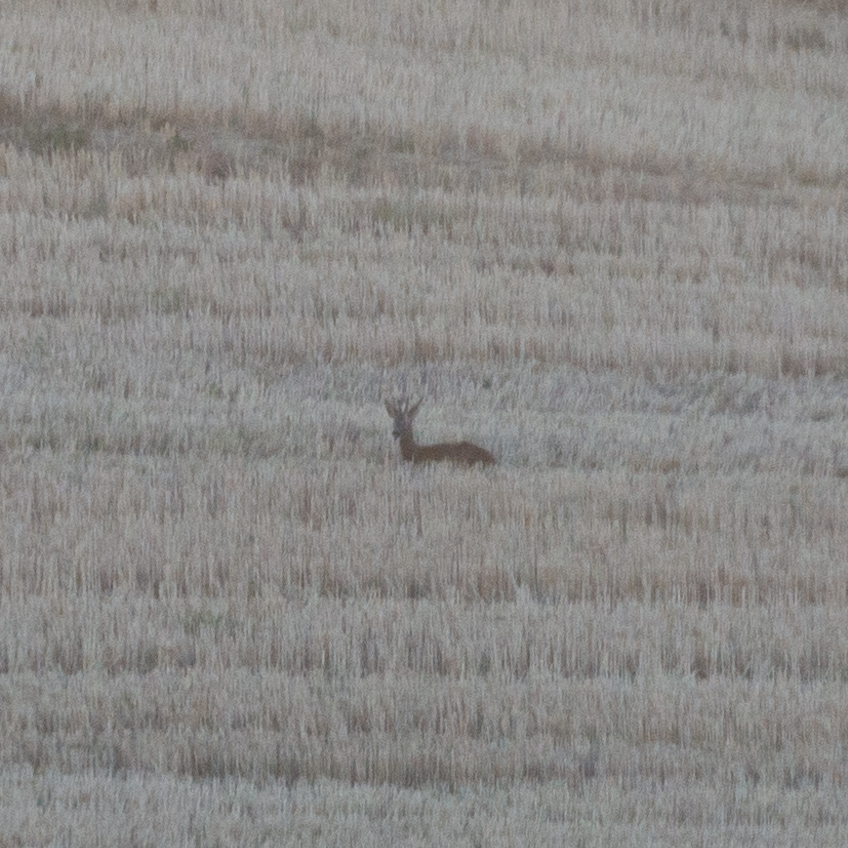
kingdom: Animalia
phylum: Chordata
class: Mammalia
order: Artiodactyla
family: Cervidae
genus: Capreolus
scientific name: Capreolus capreolus
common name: Western roe deer
